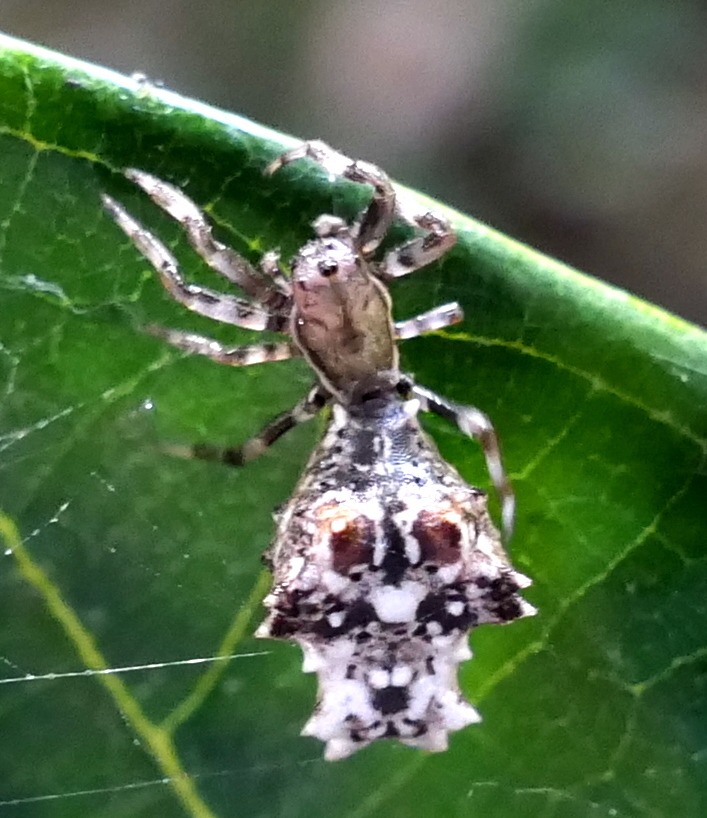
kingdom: Animalia
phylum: Arthropoda
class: Arachnida
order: Araneae
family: Araneidae
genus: Micrathena
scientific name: Micrathena horrida
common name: Orb weavers
